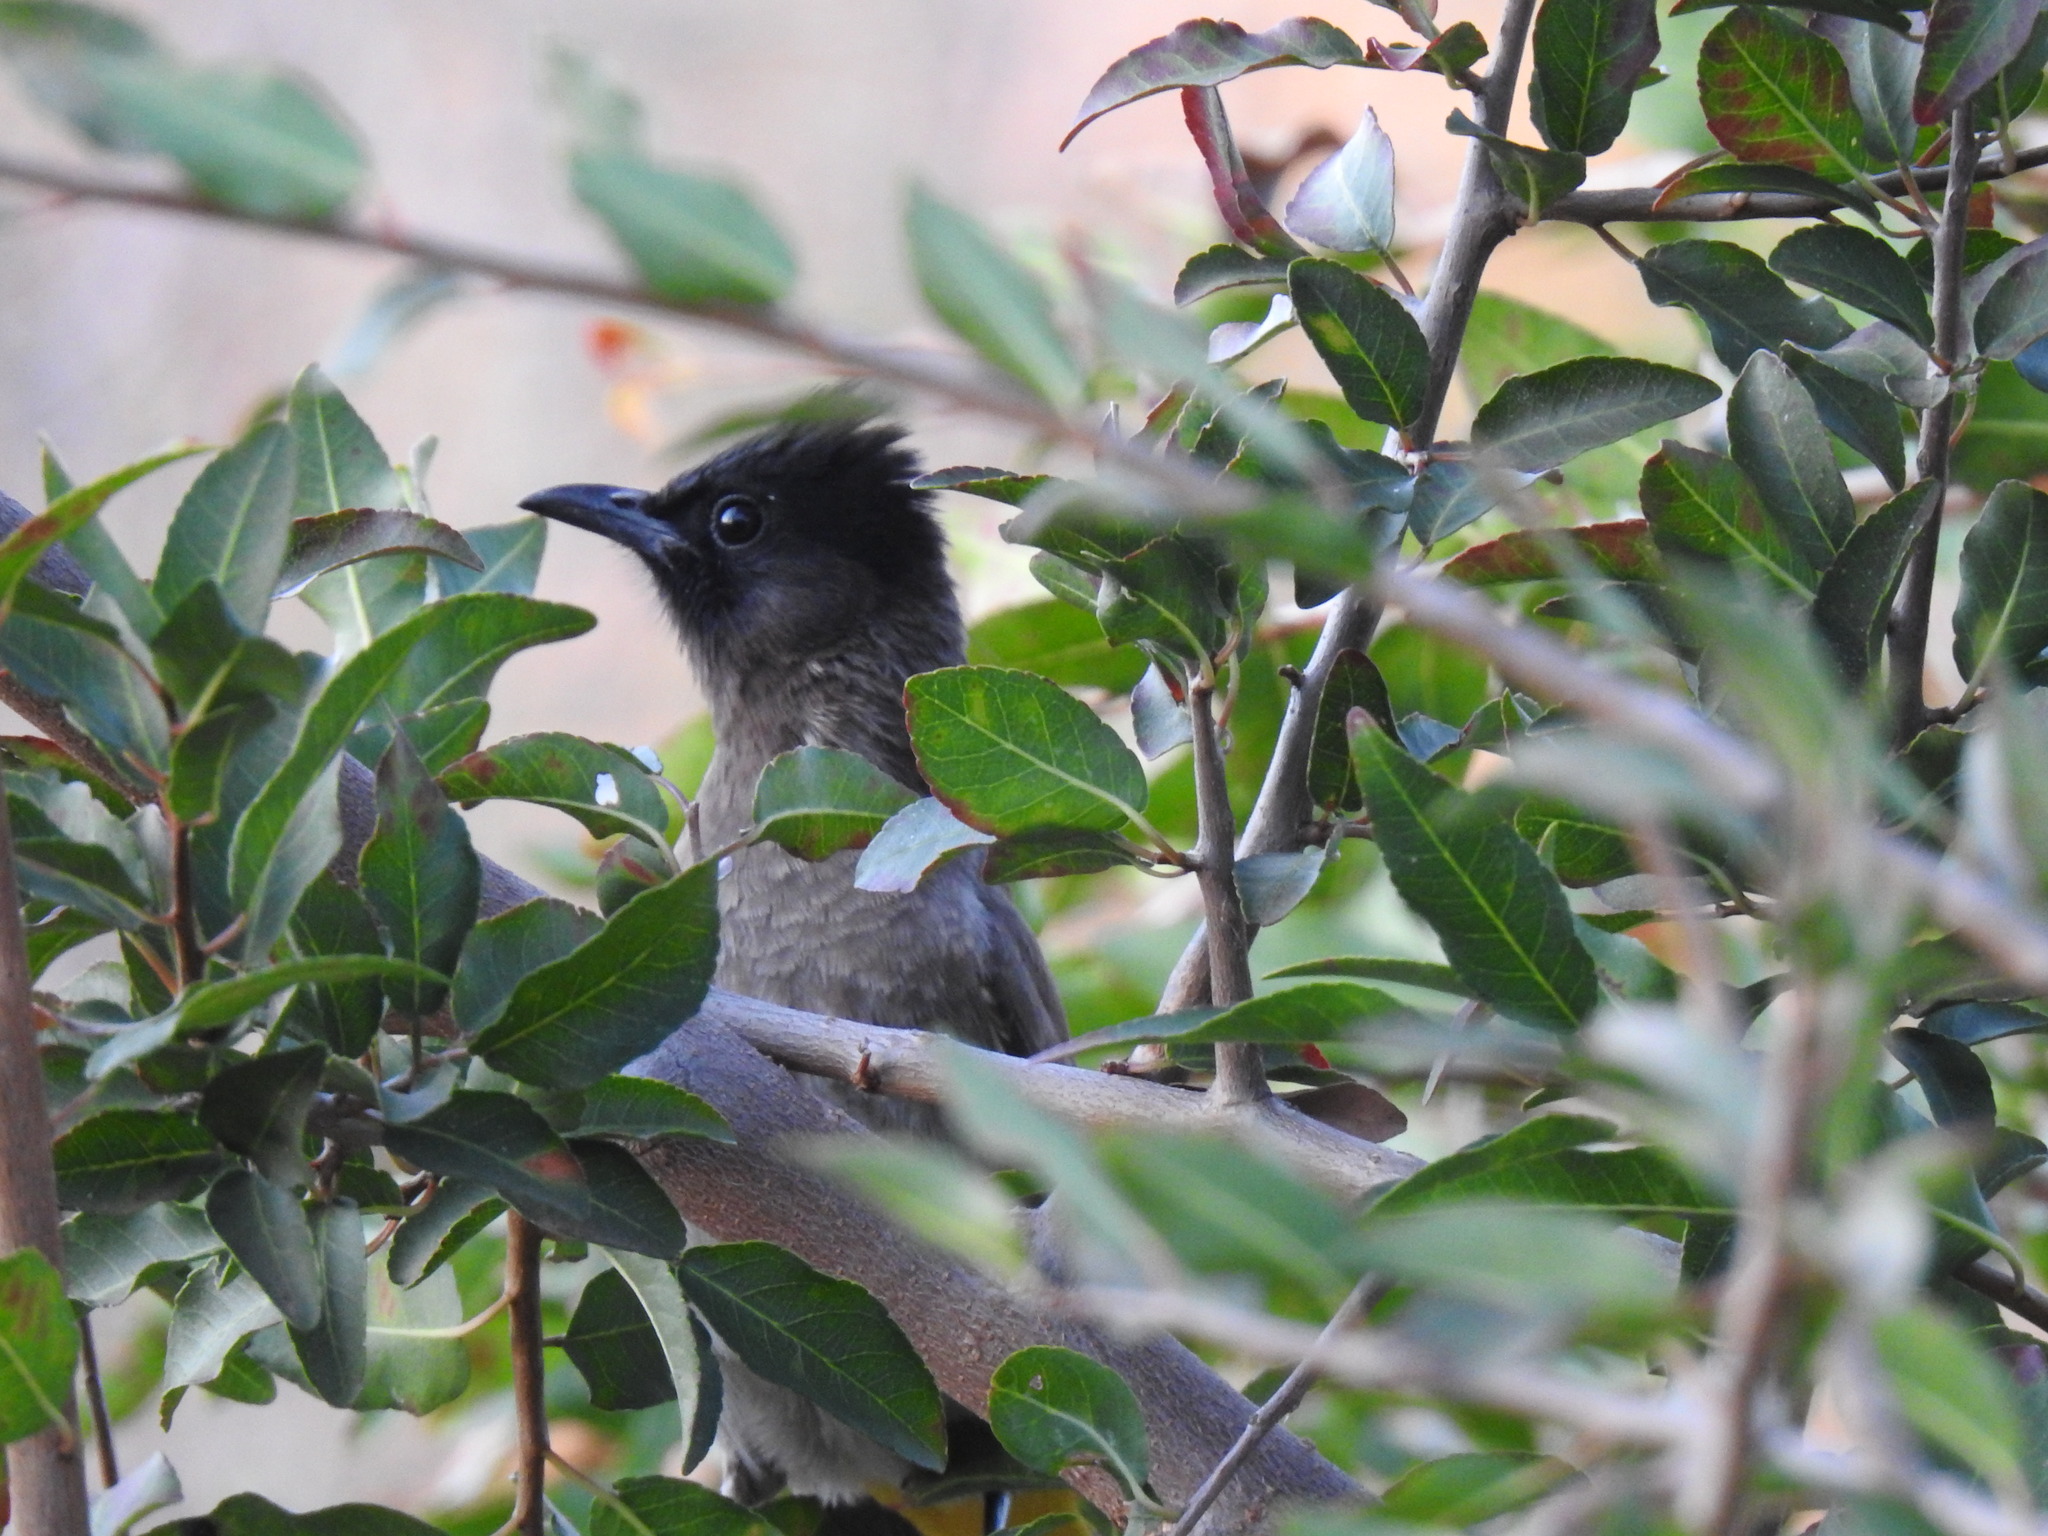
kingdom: Animalia
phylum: Chordata
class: Aves
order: Passeriformes
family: Pycnonotidae
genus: Pycnonotus
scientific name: Pycnonotus barbatus
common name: Common bulbul
